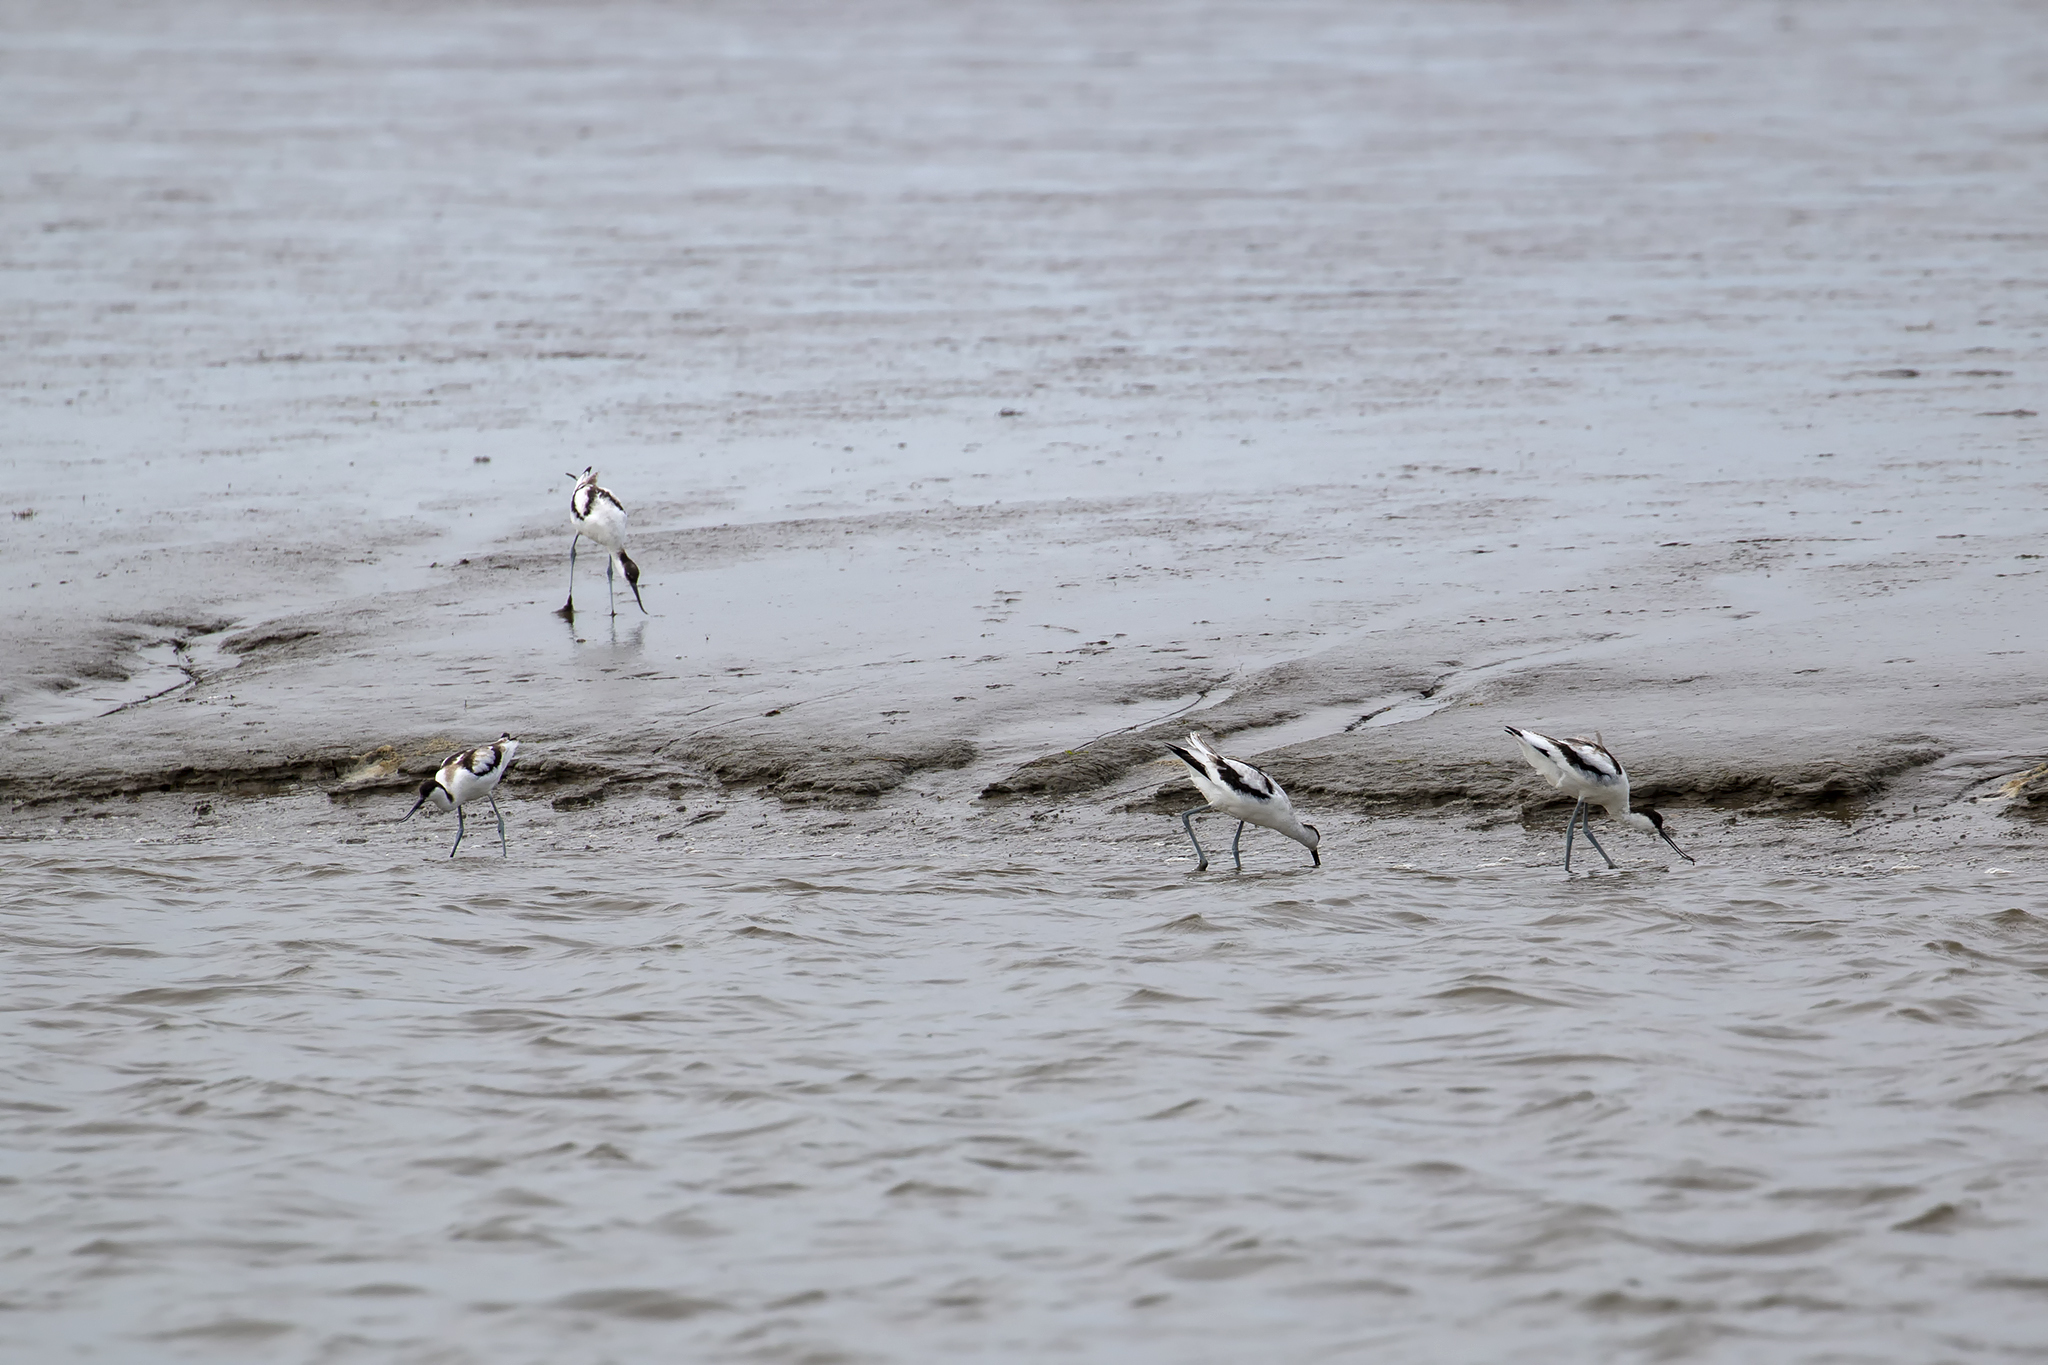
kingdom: Animalia
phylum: Chordata
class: Aves
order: Charadriiformes
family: Recurvirostridae
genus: Recurvirostra
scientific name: Recurvirostra avosetta
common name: Pied avocet
